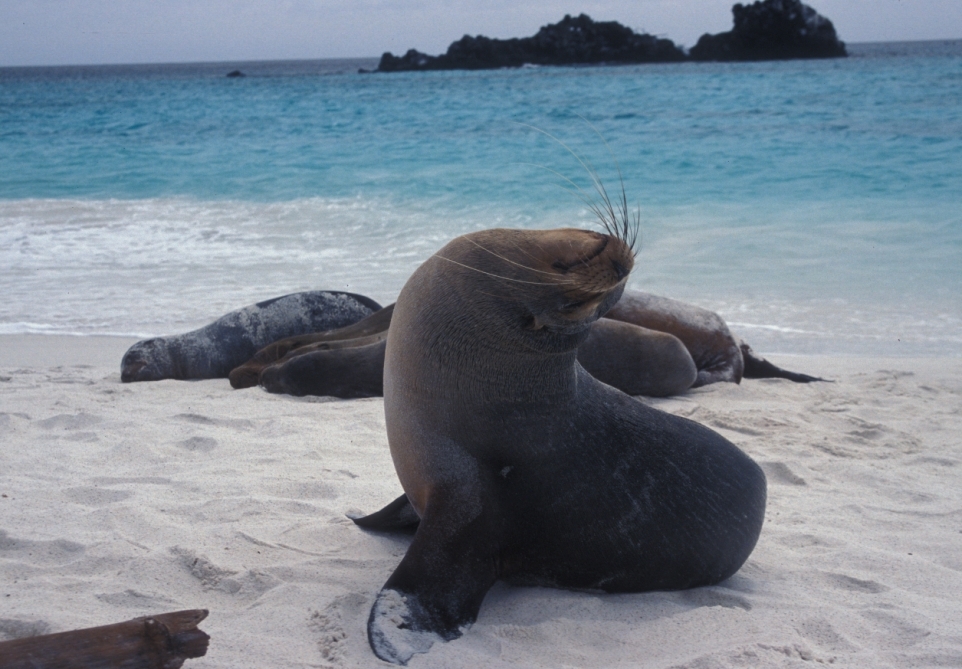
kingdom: Animalia
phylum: Chordata
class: Mammalia
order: Carnivora
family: Otariidae
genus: Zalophus
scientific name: Zalophus wollebaeki
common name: Galapagos sea lion
